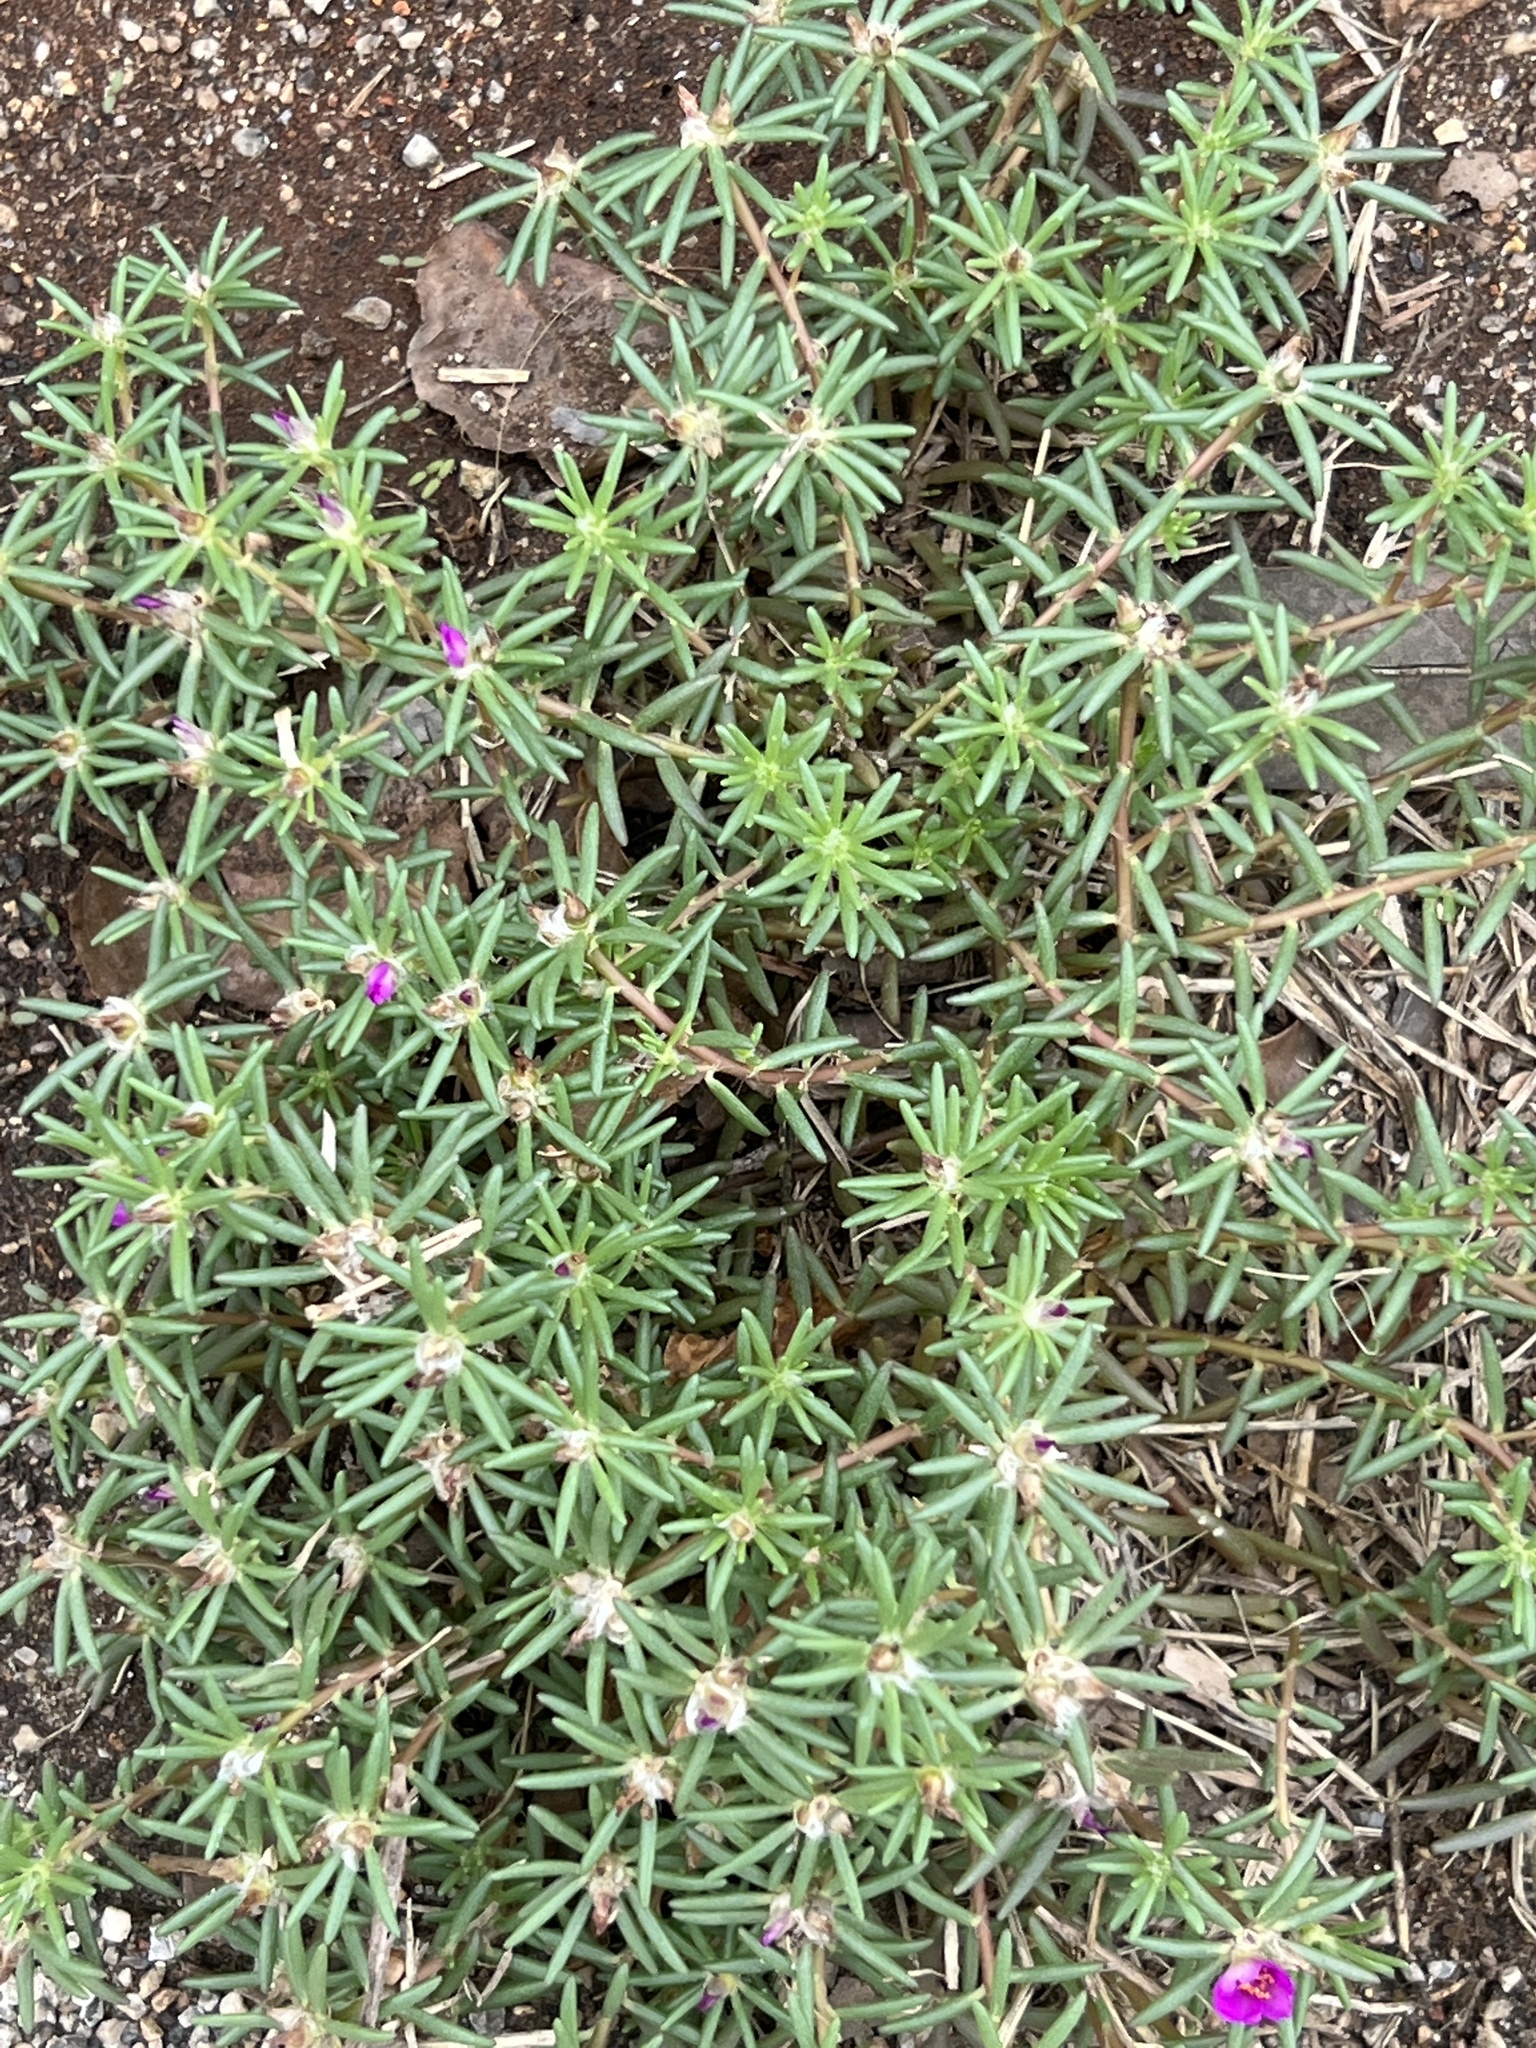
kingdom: Plantae
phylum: Tracheophyta
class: Magnoliopsida
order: Caryophyllales
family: Portulacaceae
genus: Portulaca
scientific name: Portulaca pilosa
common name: Kiss me quick
